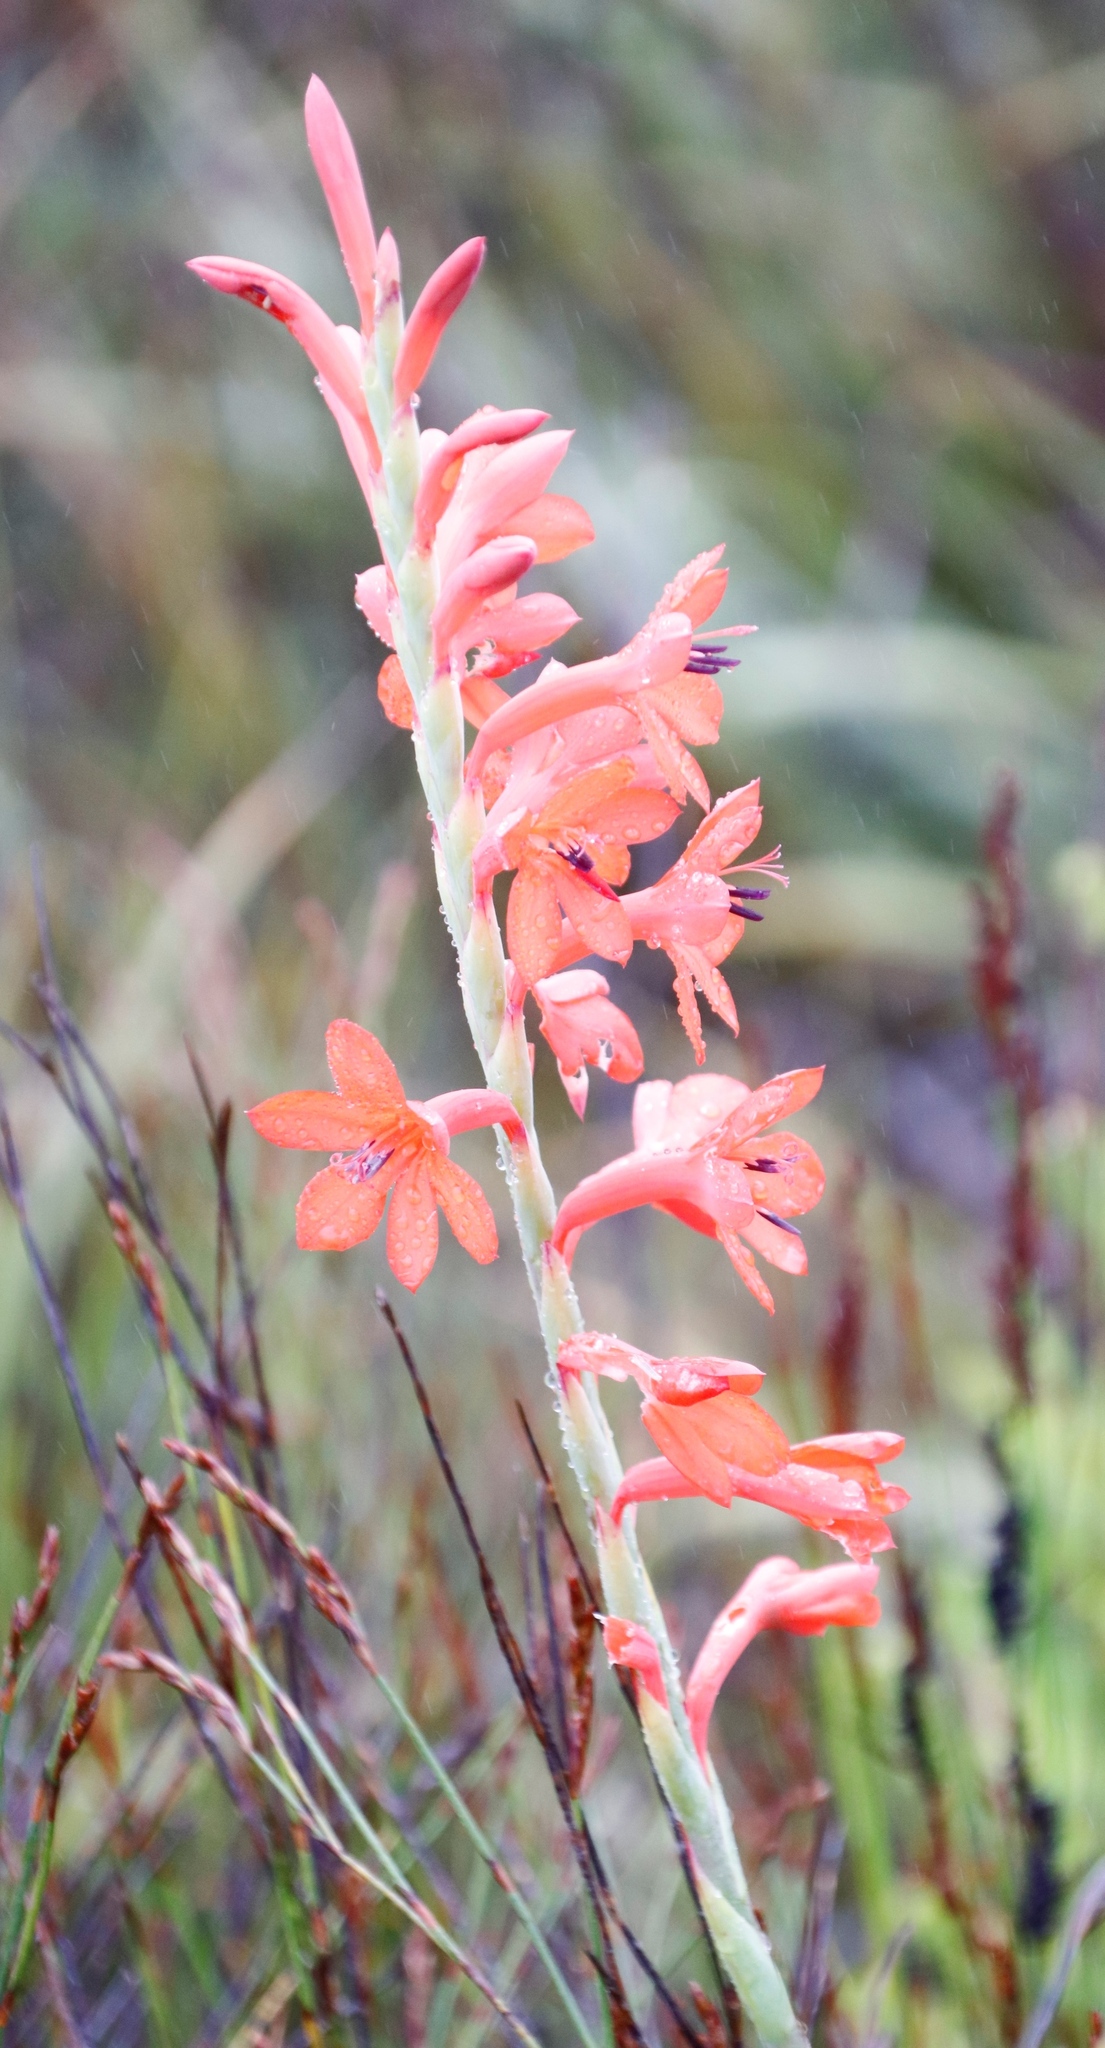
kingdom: Plantae
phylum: Tracheophyta
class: Liliopsida
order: Asparagales
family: Iridaceae
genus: Watsonia
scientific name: Watsonia schlechteri
